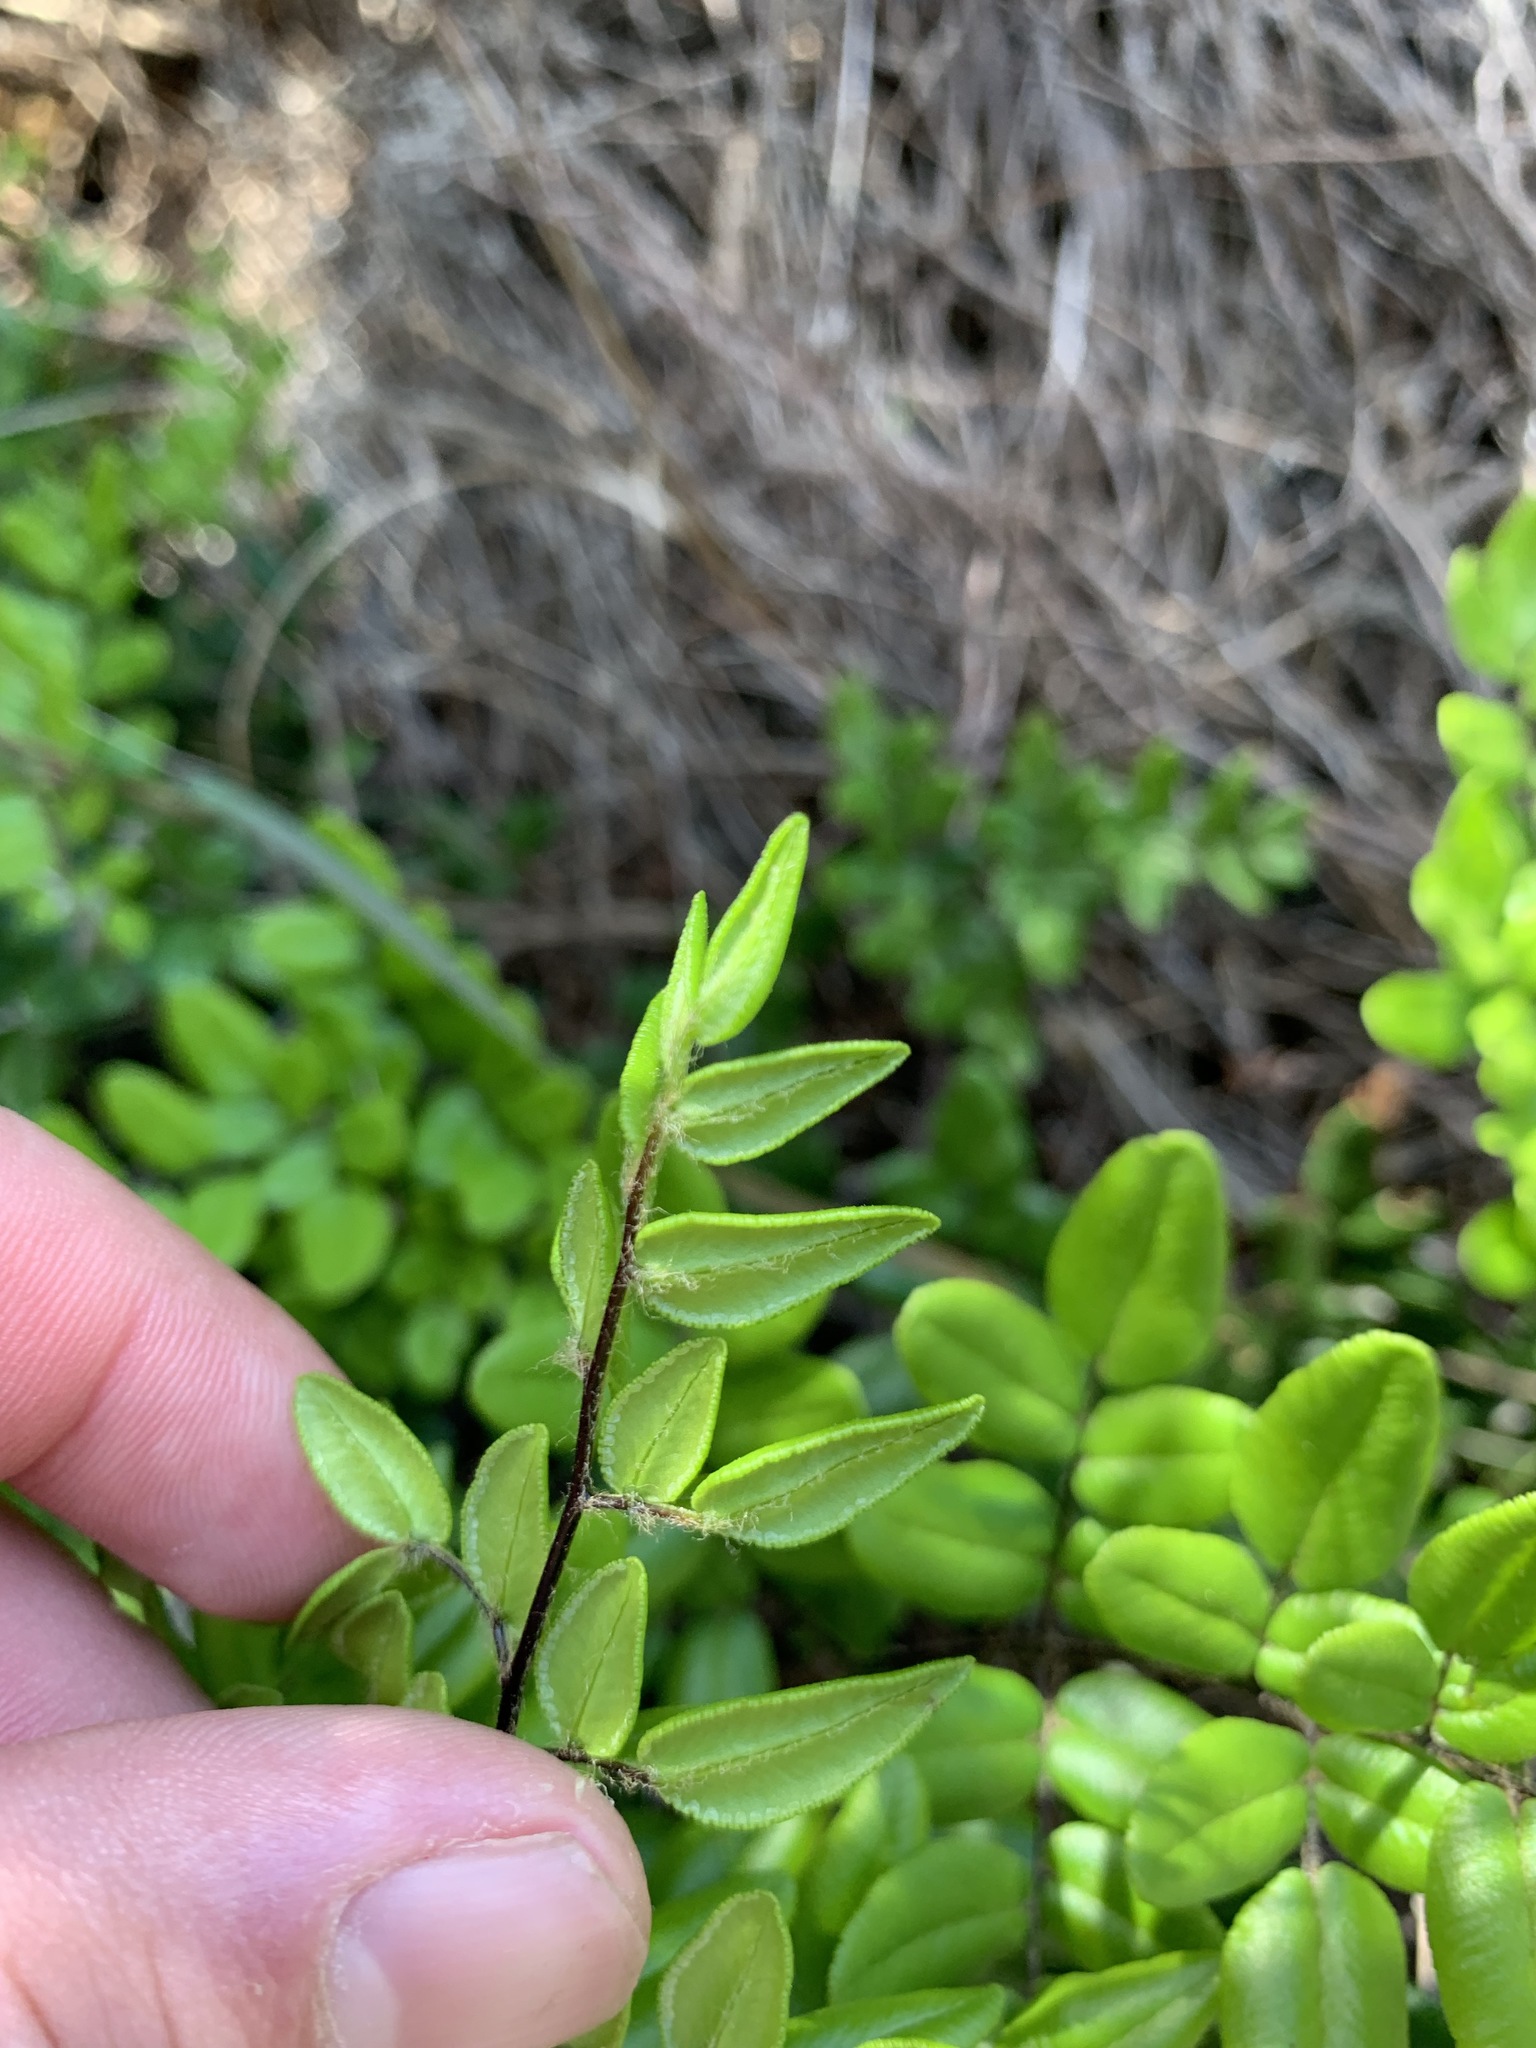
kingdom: Plantae
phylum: Tracheophyta
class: Polypodiopsida
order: Polypodiales
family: Pteridaceae
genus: Pellaea
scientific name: Pellaea pteroides
